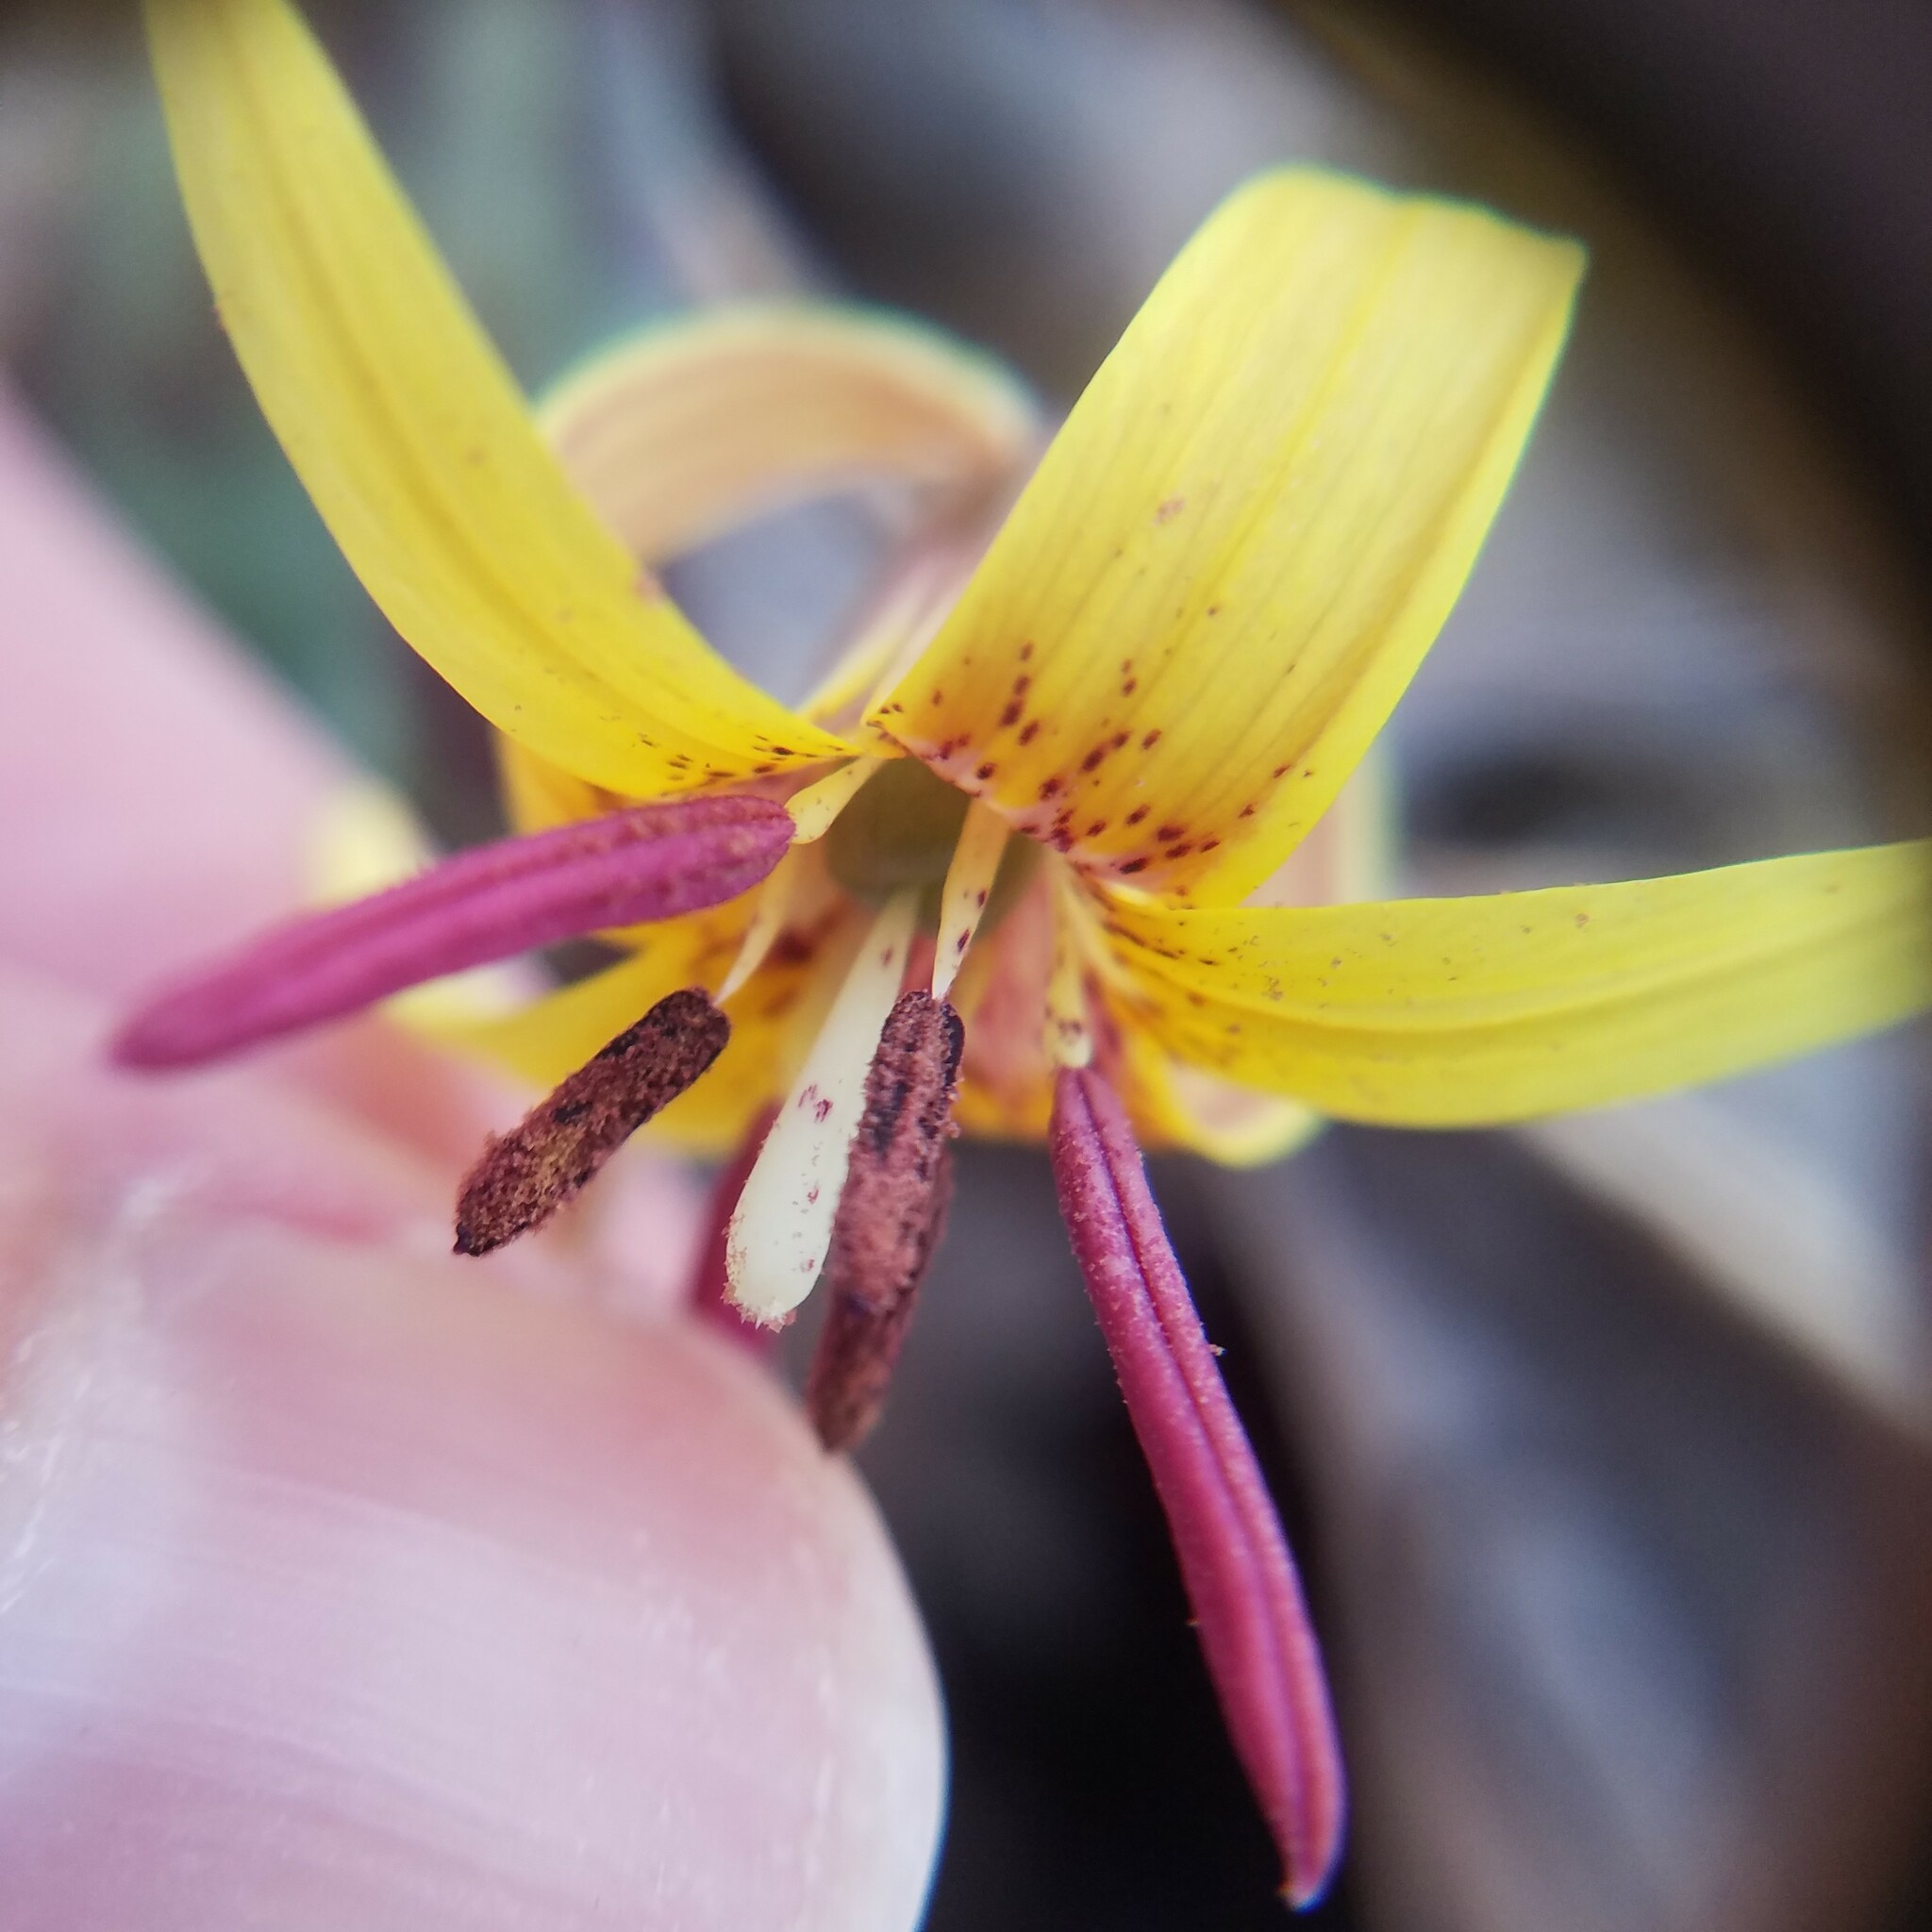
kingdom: Plantae
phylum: Tracheophyta
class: Liliopsida
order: Liliales
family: Liliaceae
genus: Erythronium
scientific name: Erythronium umbilicatum
